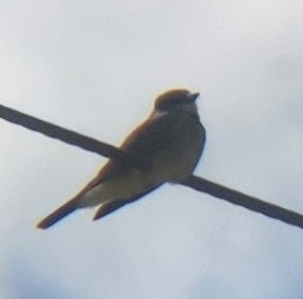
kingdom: Animalia
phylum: Chordata
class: Aves
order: Passeriformes
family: Tyrannidae
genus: Tyrannus
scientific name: Tyrannus vociferans
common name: Cassin's kingbird
